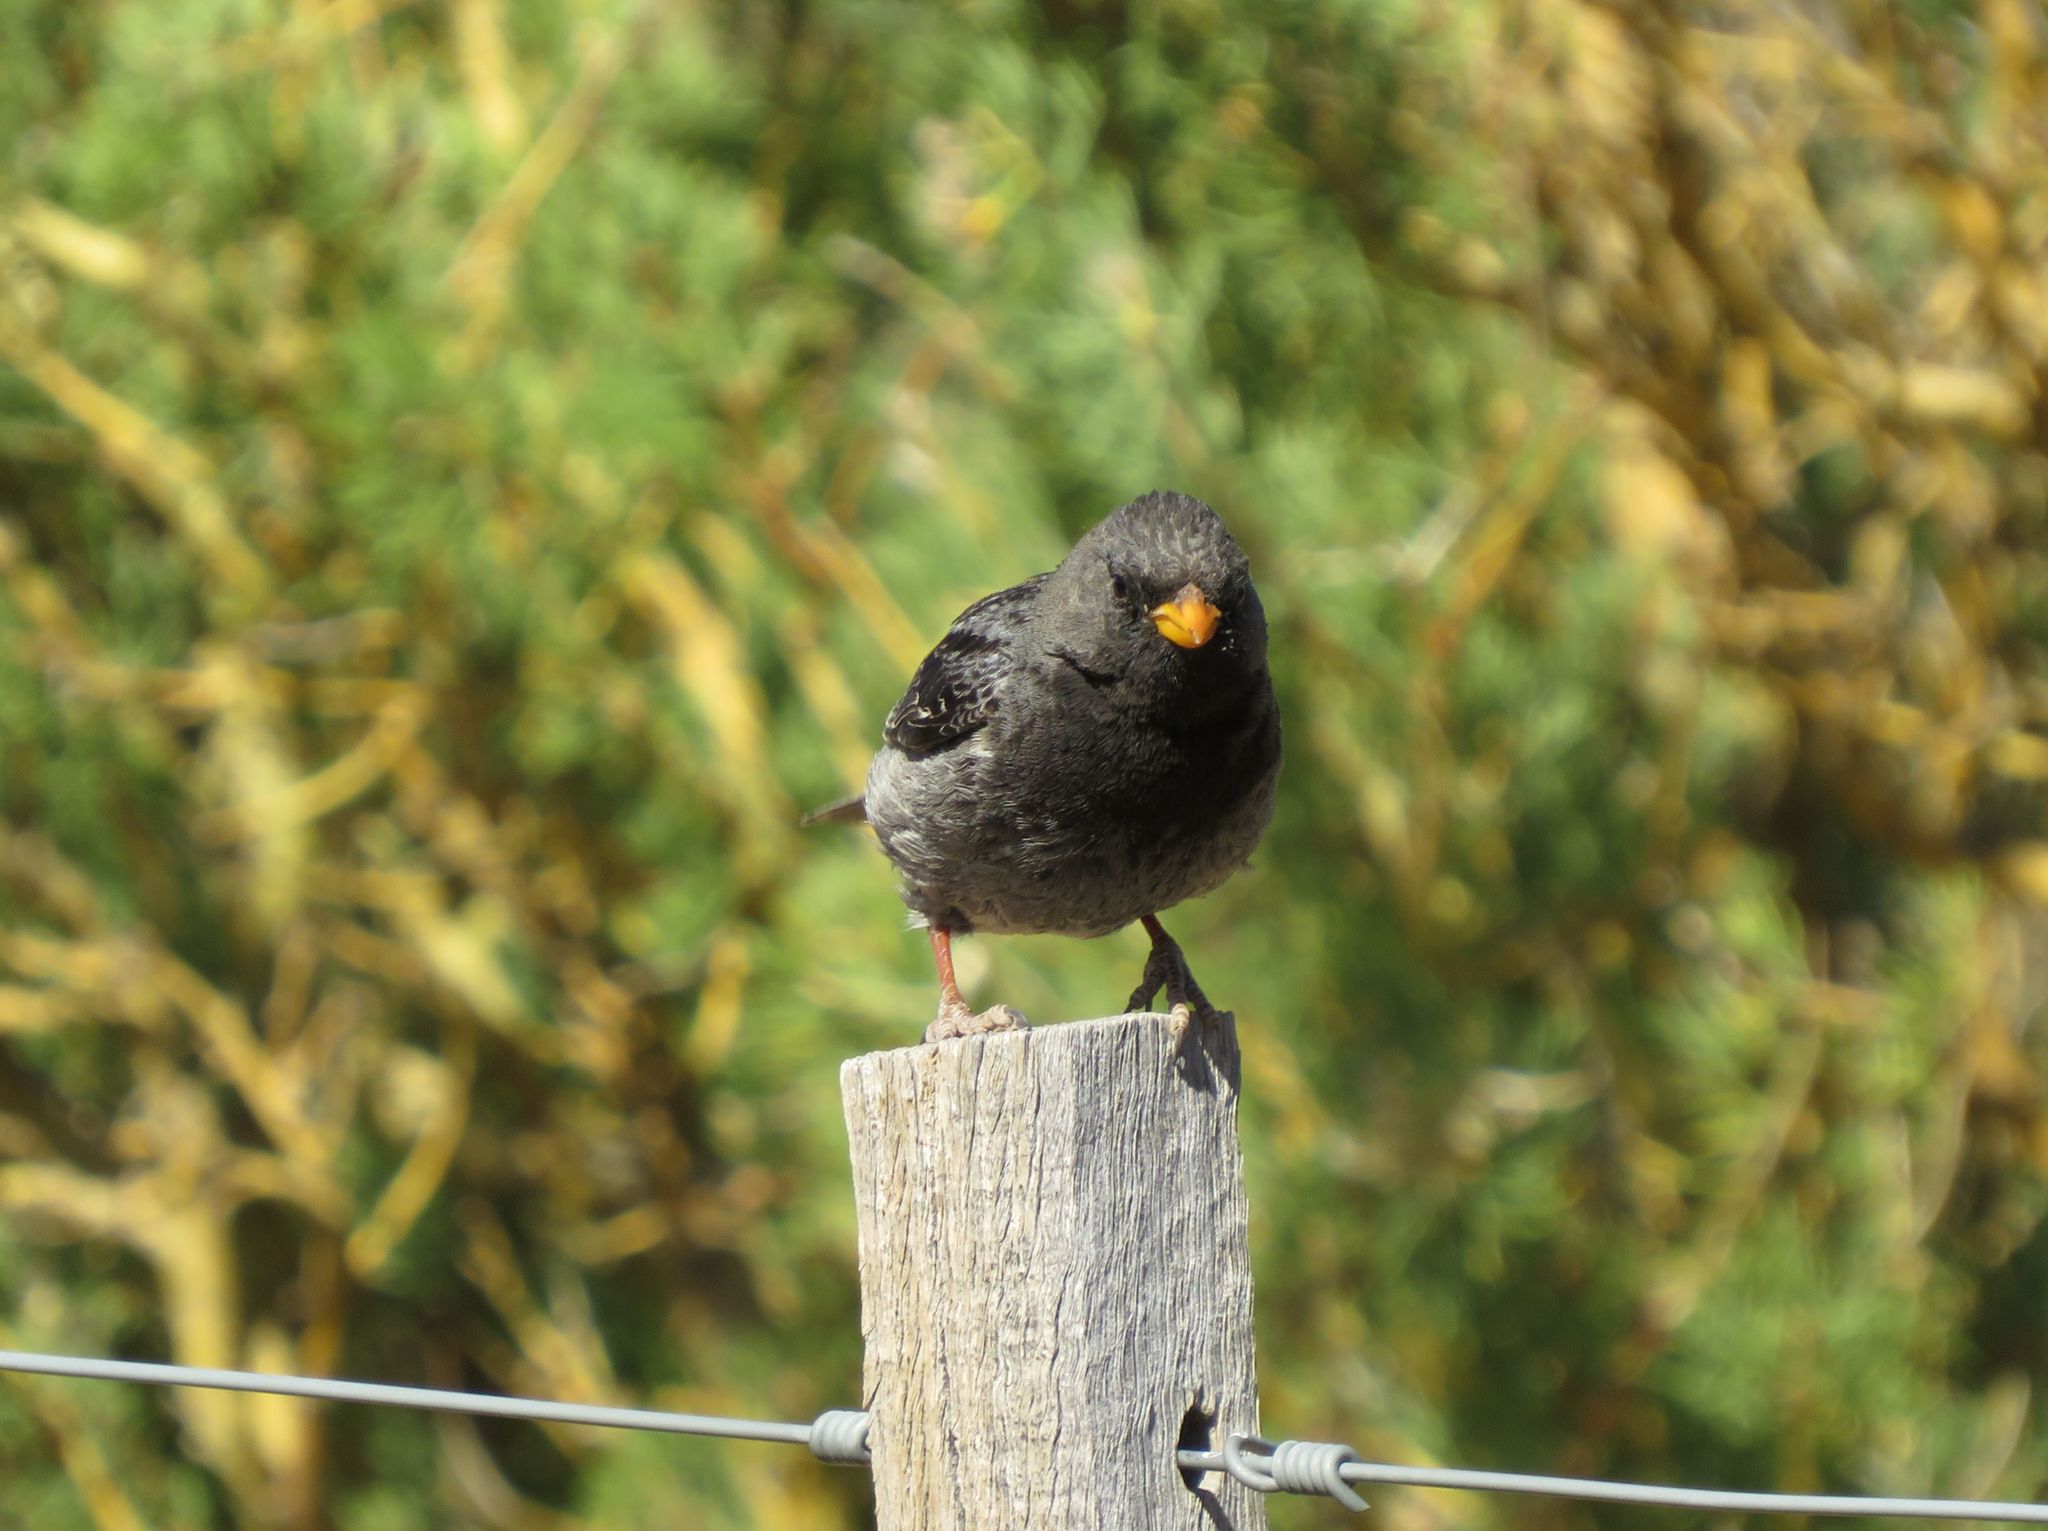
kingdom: Animalia
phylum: Chordata
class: Aves
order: Passeriformes
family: Thraupidae
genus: Rhopospina
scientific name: Rhopospina fruticeti
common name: Mourning sierra finch
